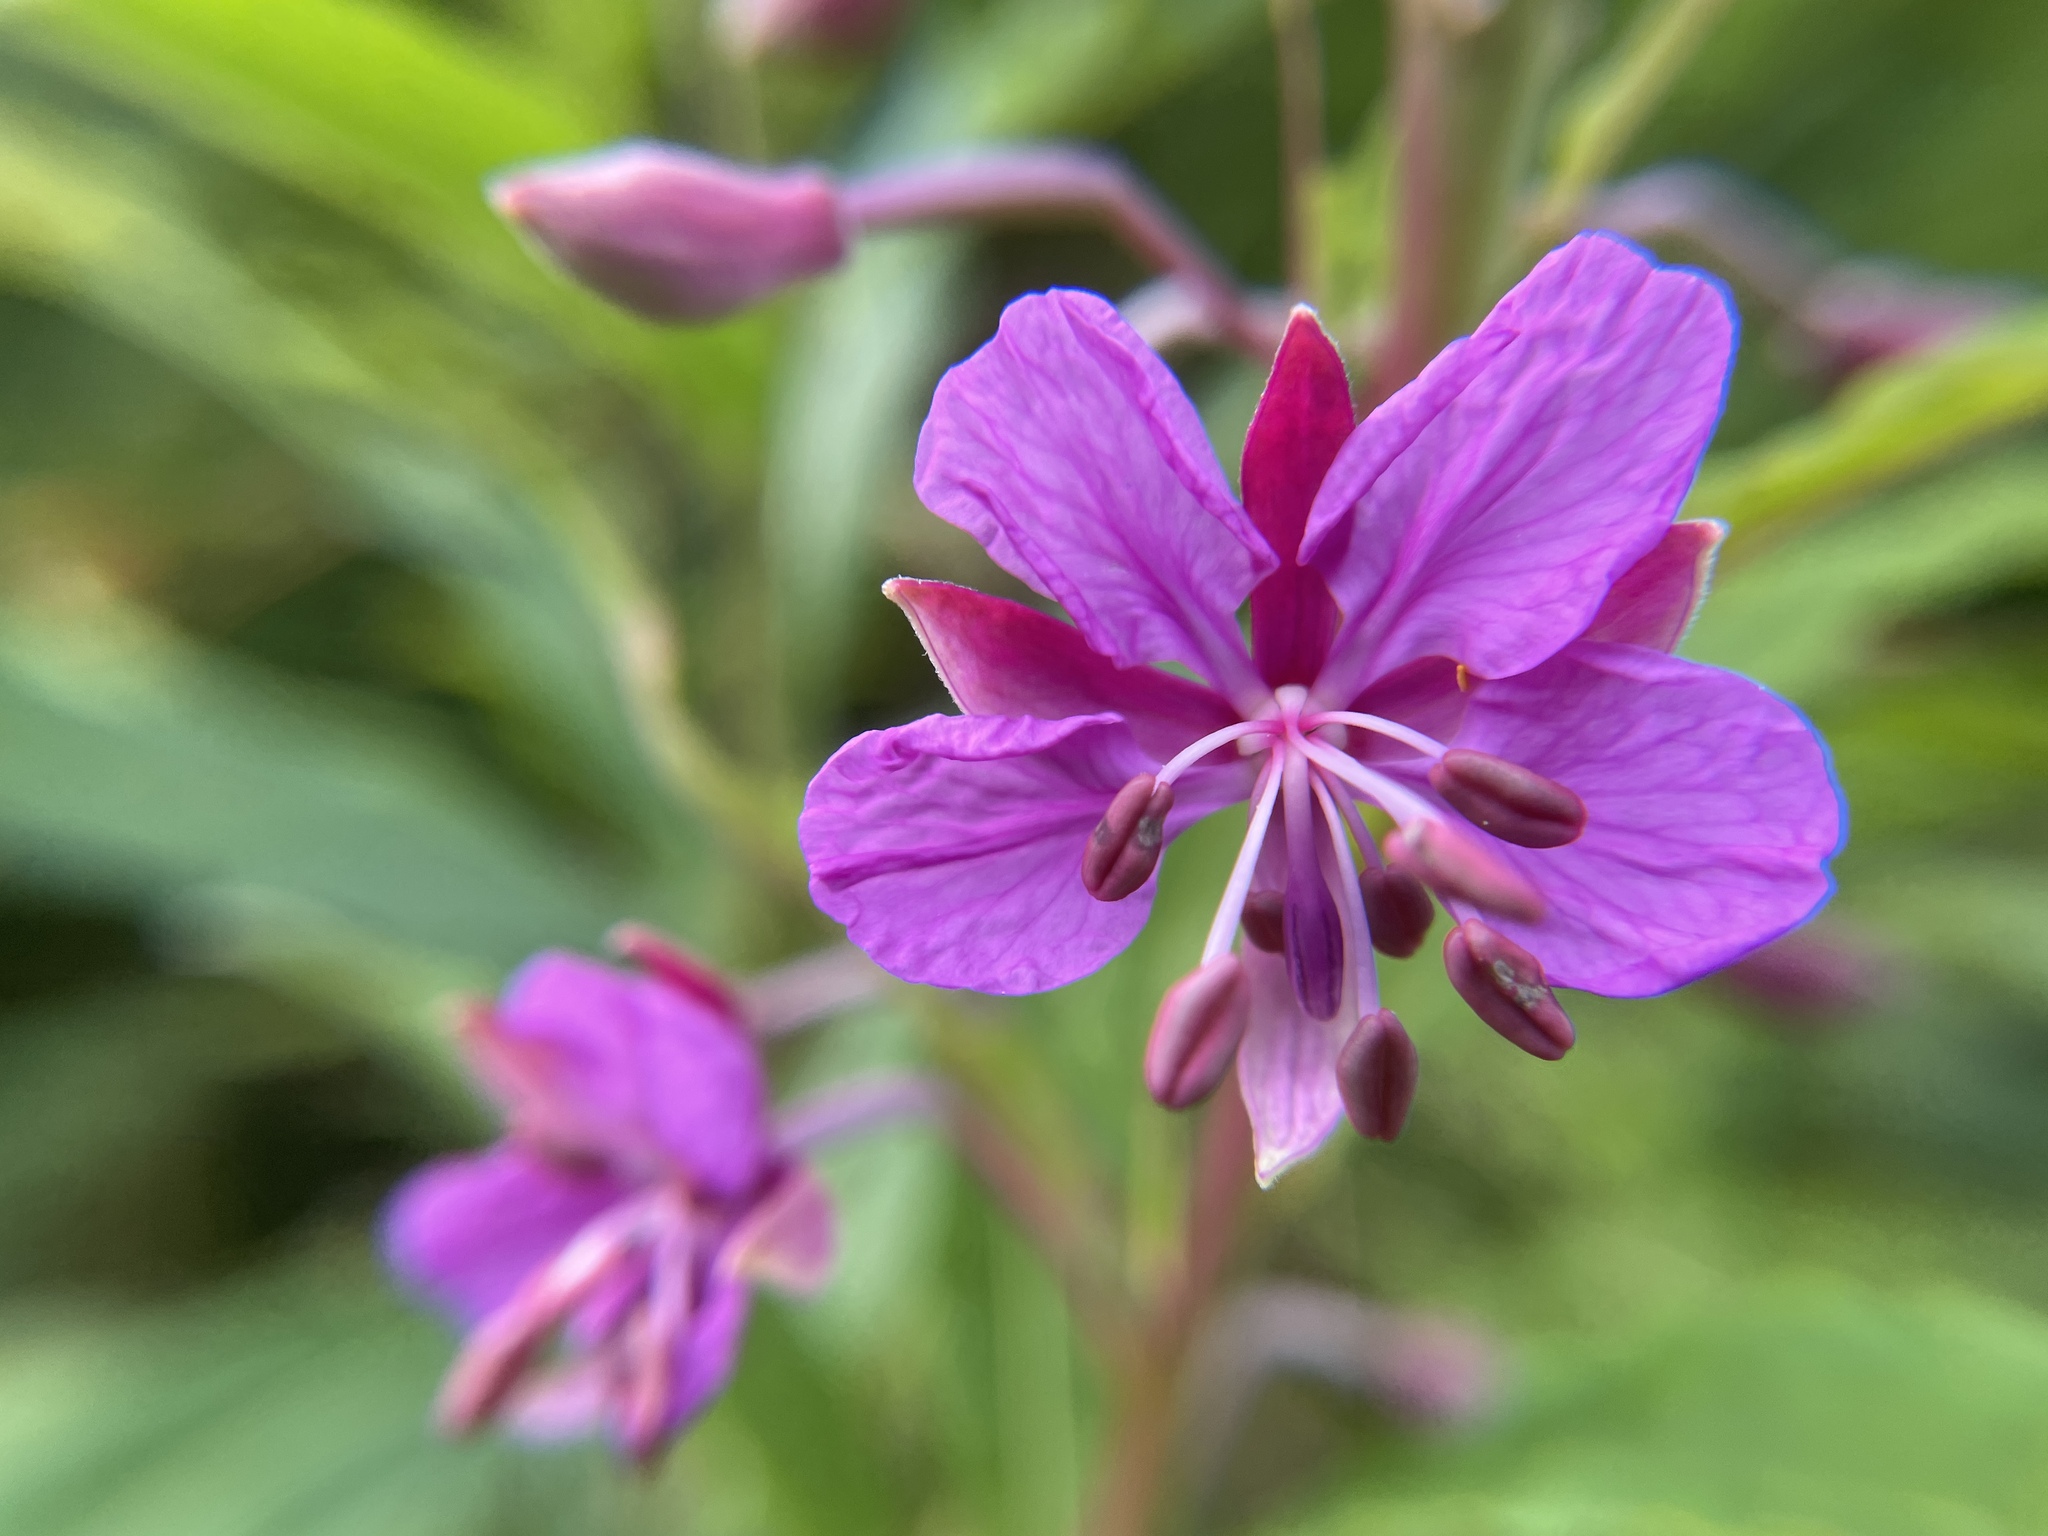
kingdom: Plantae
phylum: Tracheophyta
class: Magnoliopsida
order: Myrtales
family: Onagraceae
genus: Chamaenerion
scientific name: Chamaenerion angustifolium
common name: Fireweed
